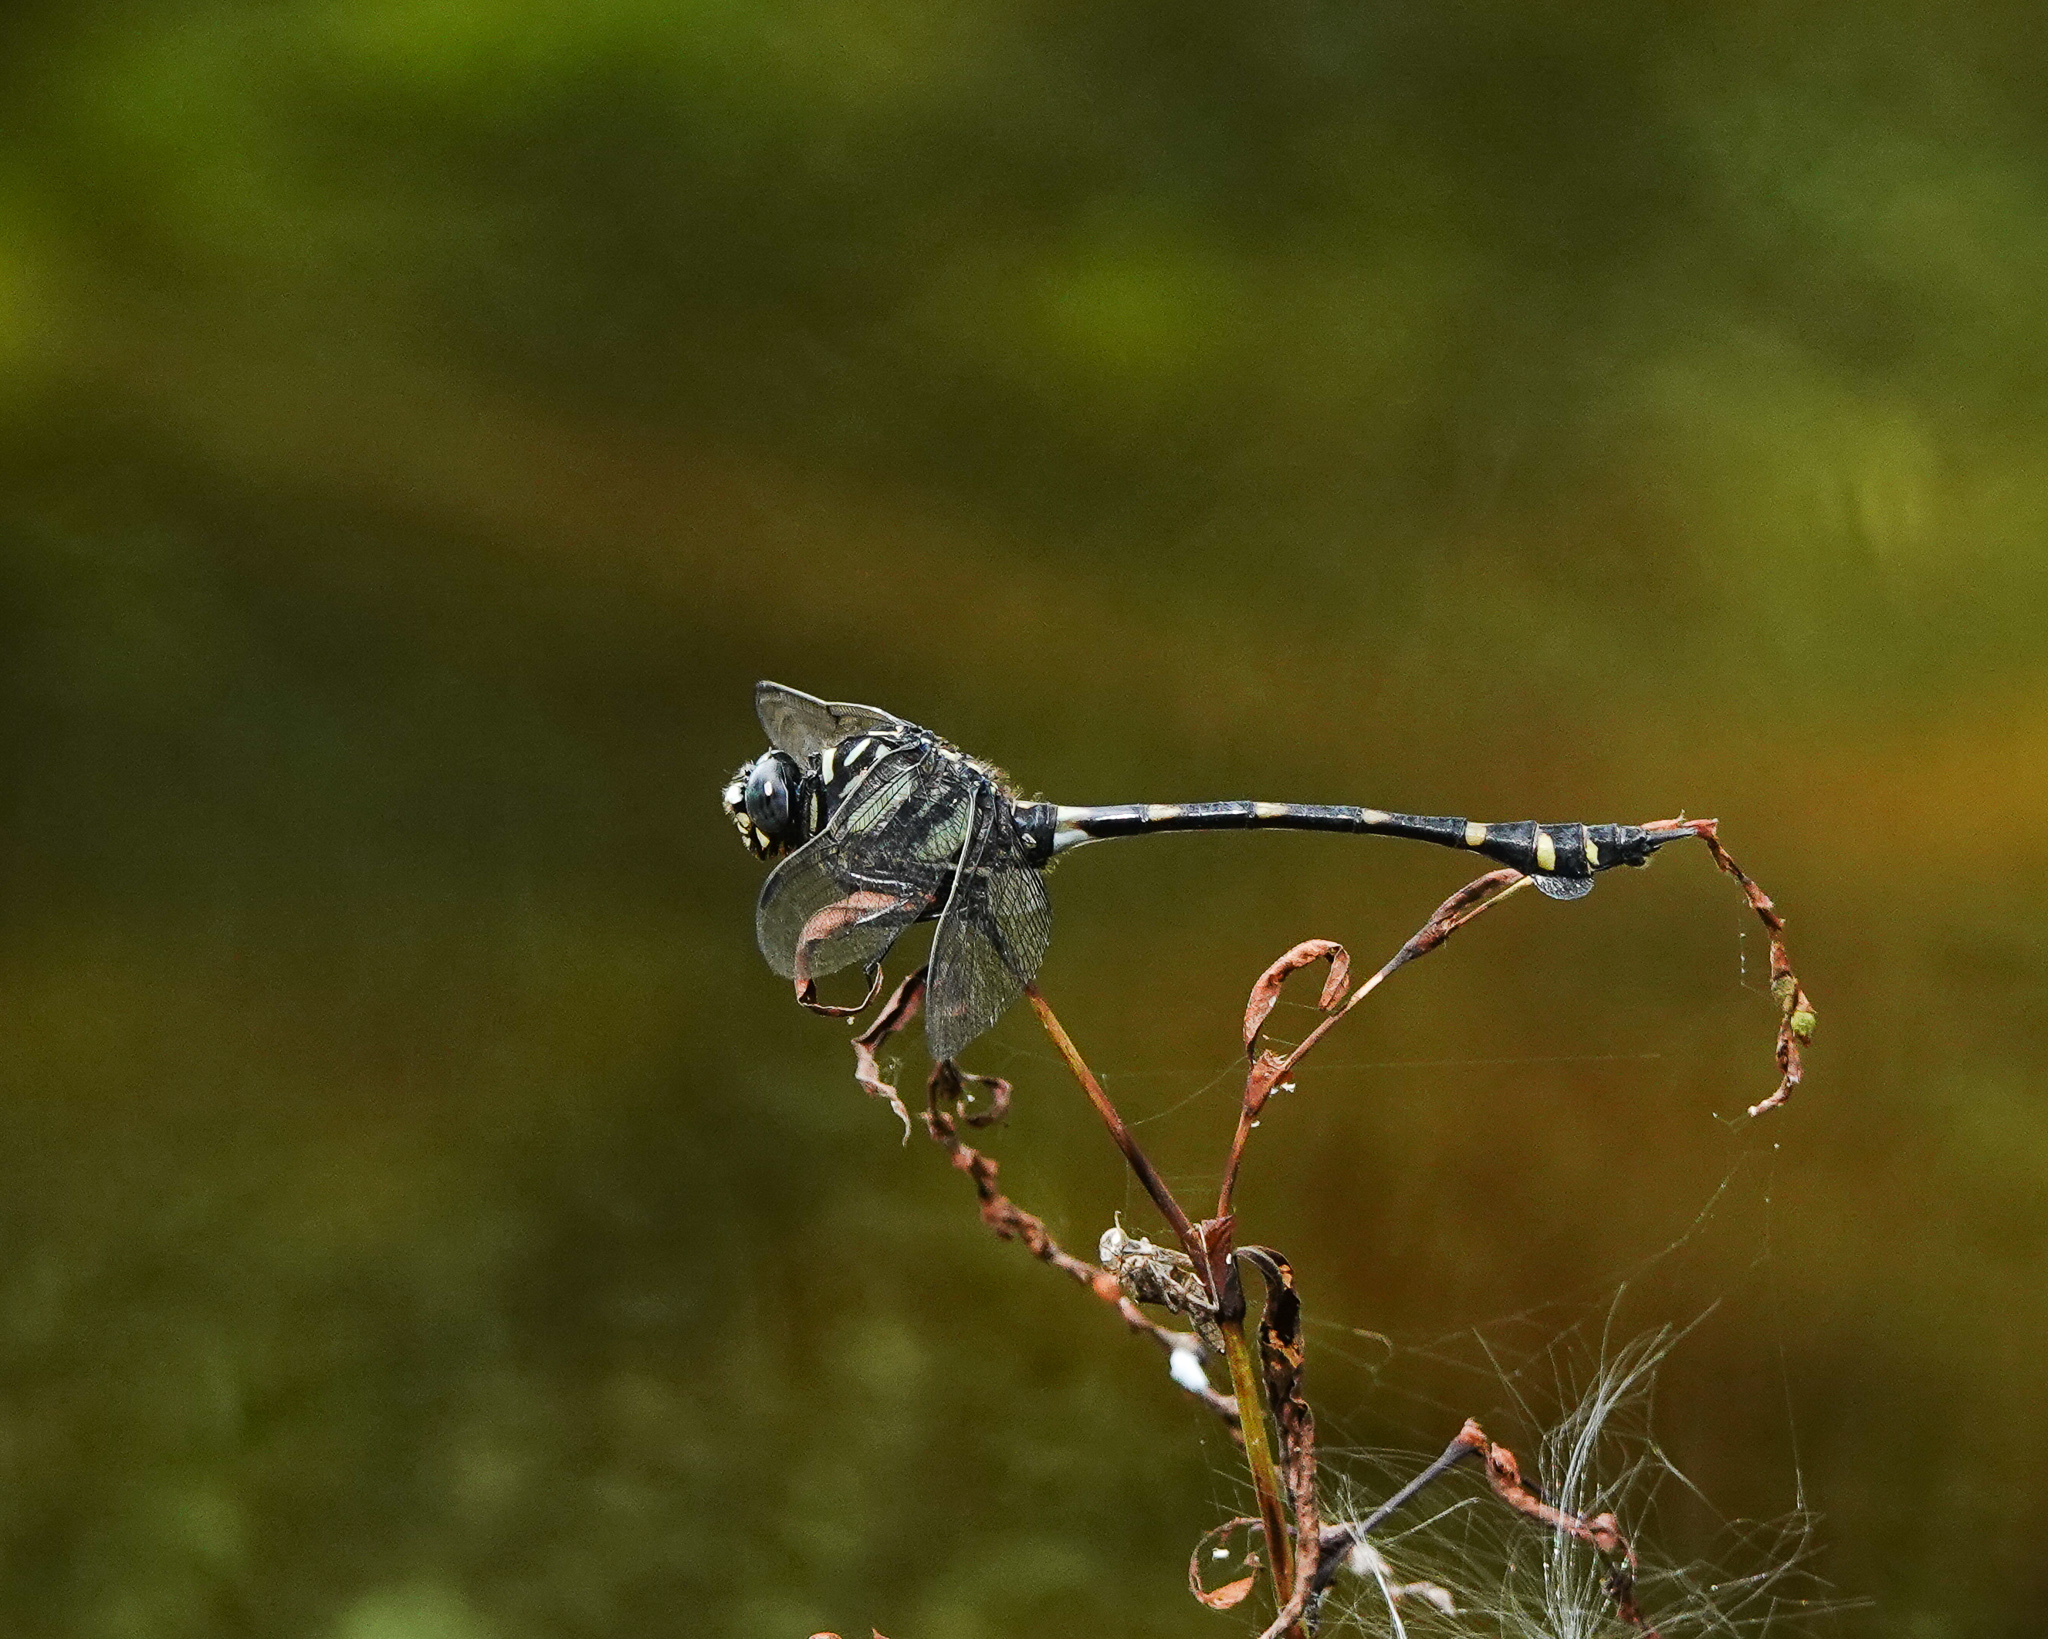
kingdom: Animalia
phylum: Arthropoda
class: Insecta
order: Odonata
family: Gomphidae
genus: Ictinogomphus
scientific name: Ictinogomphus rapax
